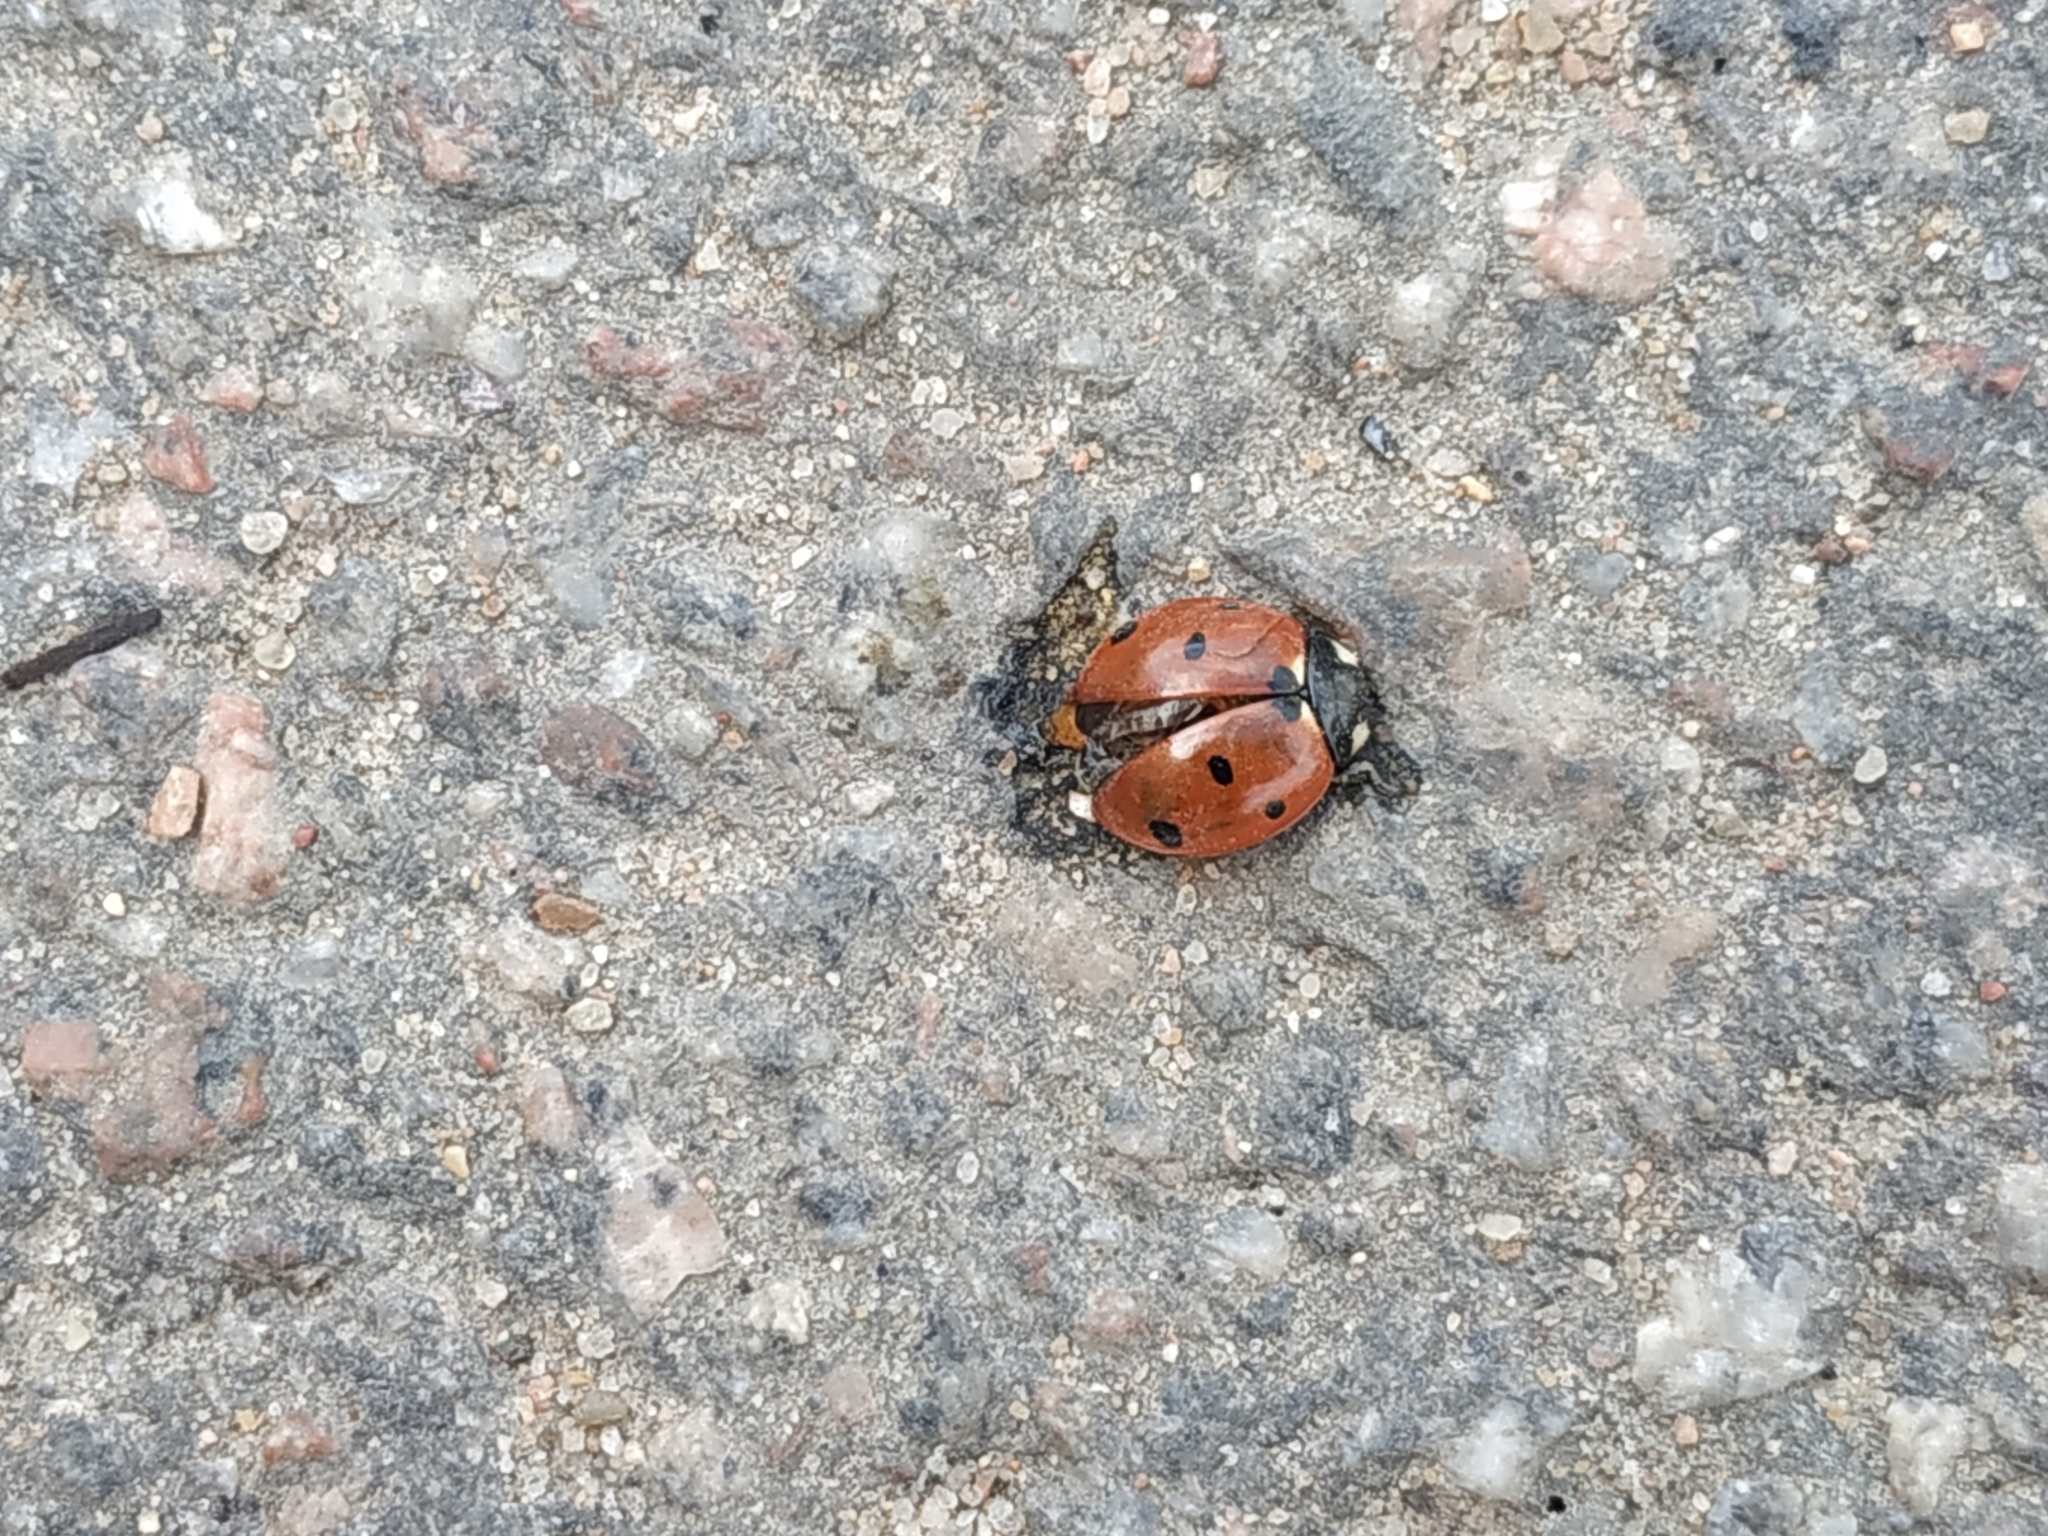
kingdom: Animalia
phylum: Arthropoda
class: Insecta
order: Coleoptera
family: Coccinellidae
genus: Coccinella
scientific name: Coccinella septempunctata
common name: Sevenspotted lady beetle
